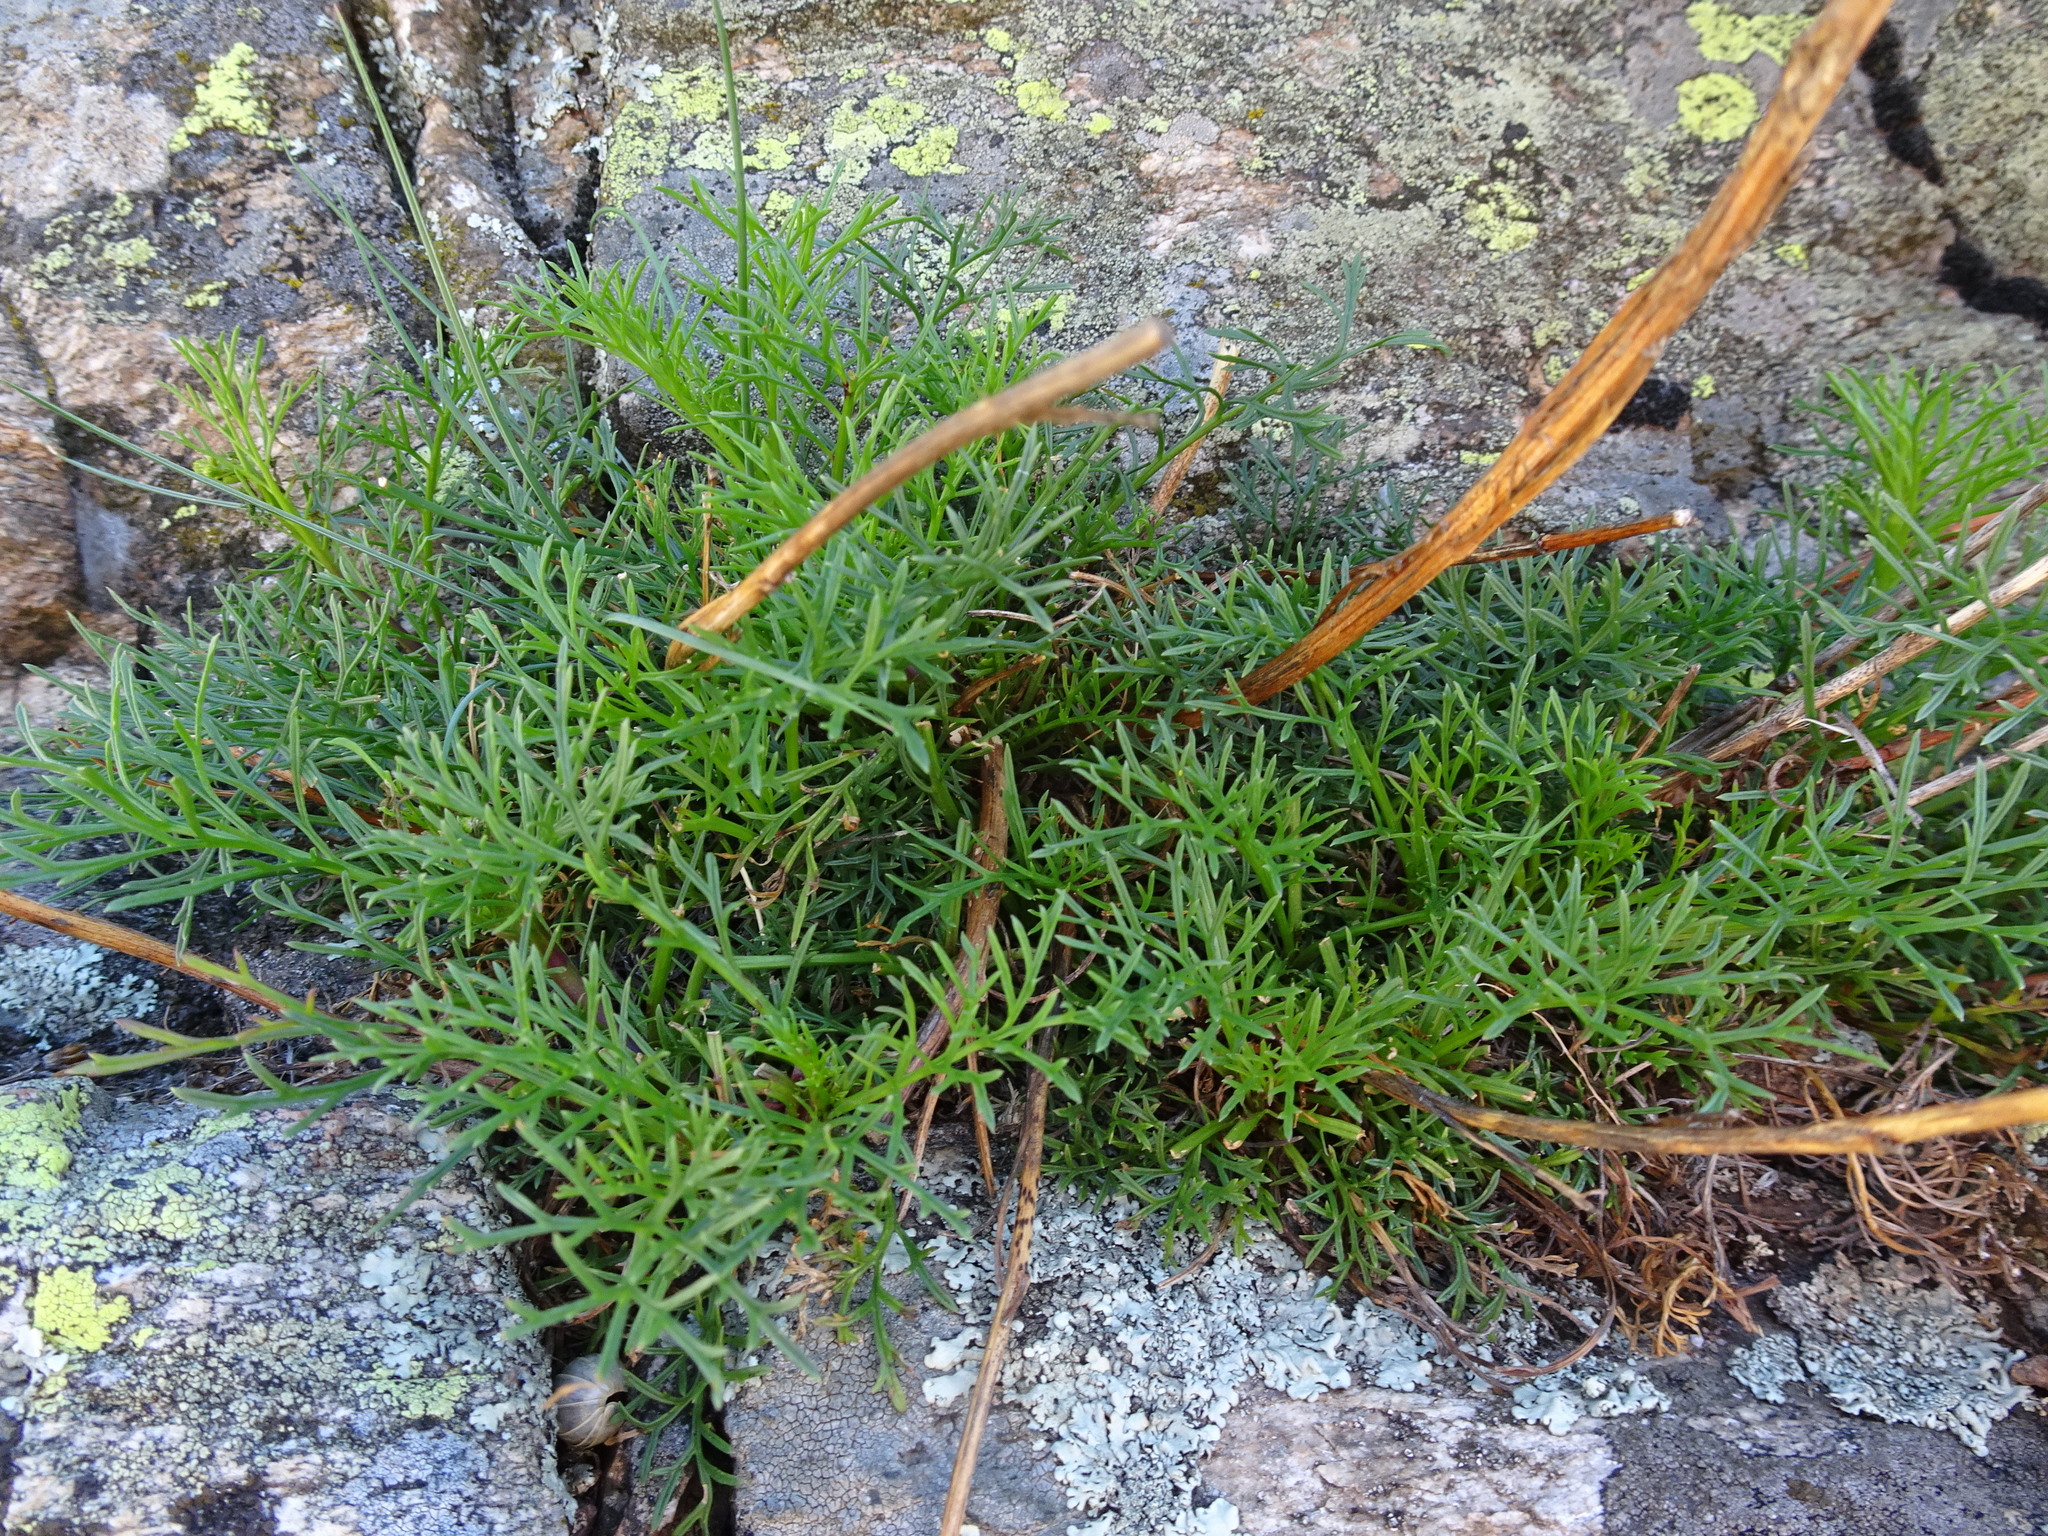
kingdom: Plantae
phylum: Tracheophyta
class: Magnoliopsida
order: Asterales
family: Asteraceae
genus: Jacobaea
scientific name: Jacobaea adonidifolia
